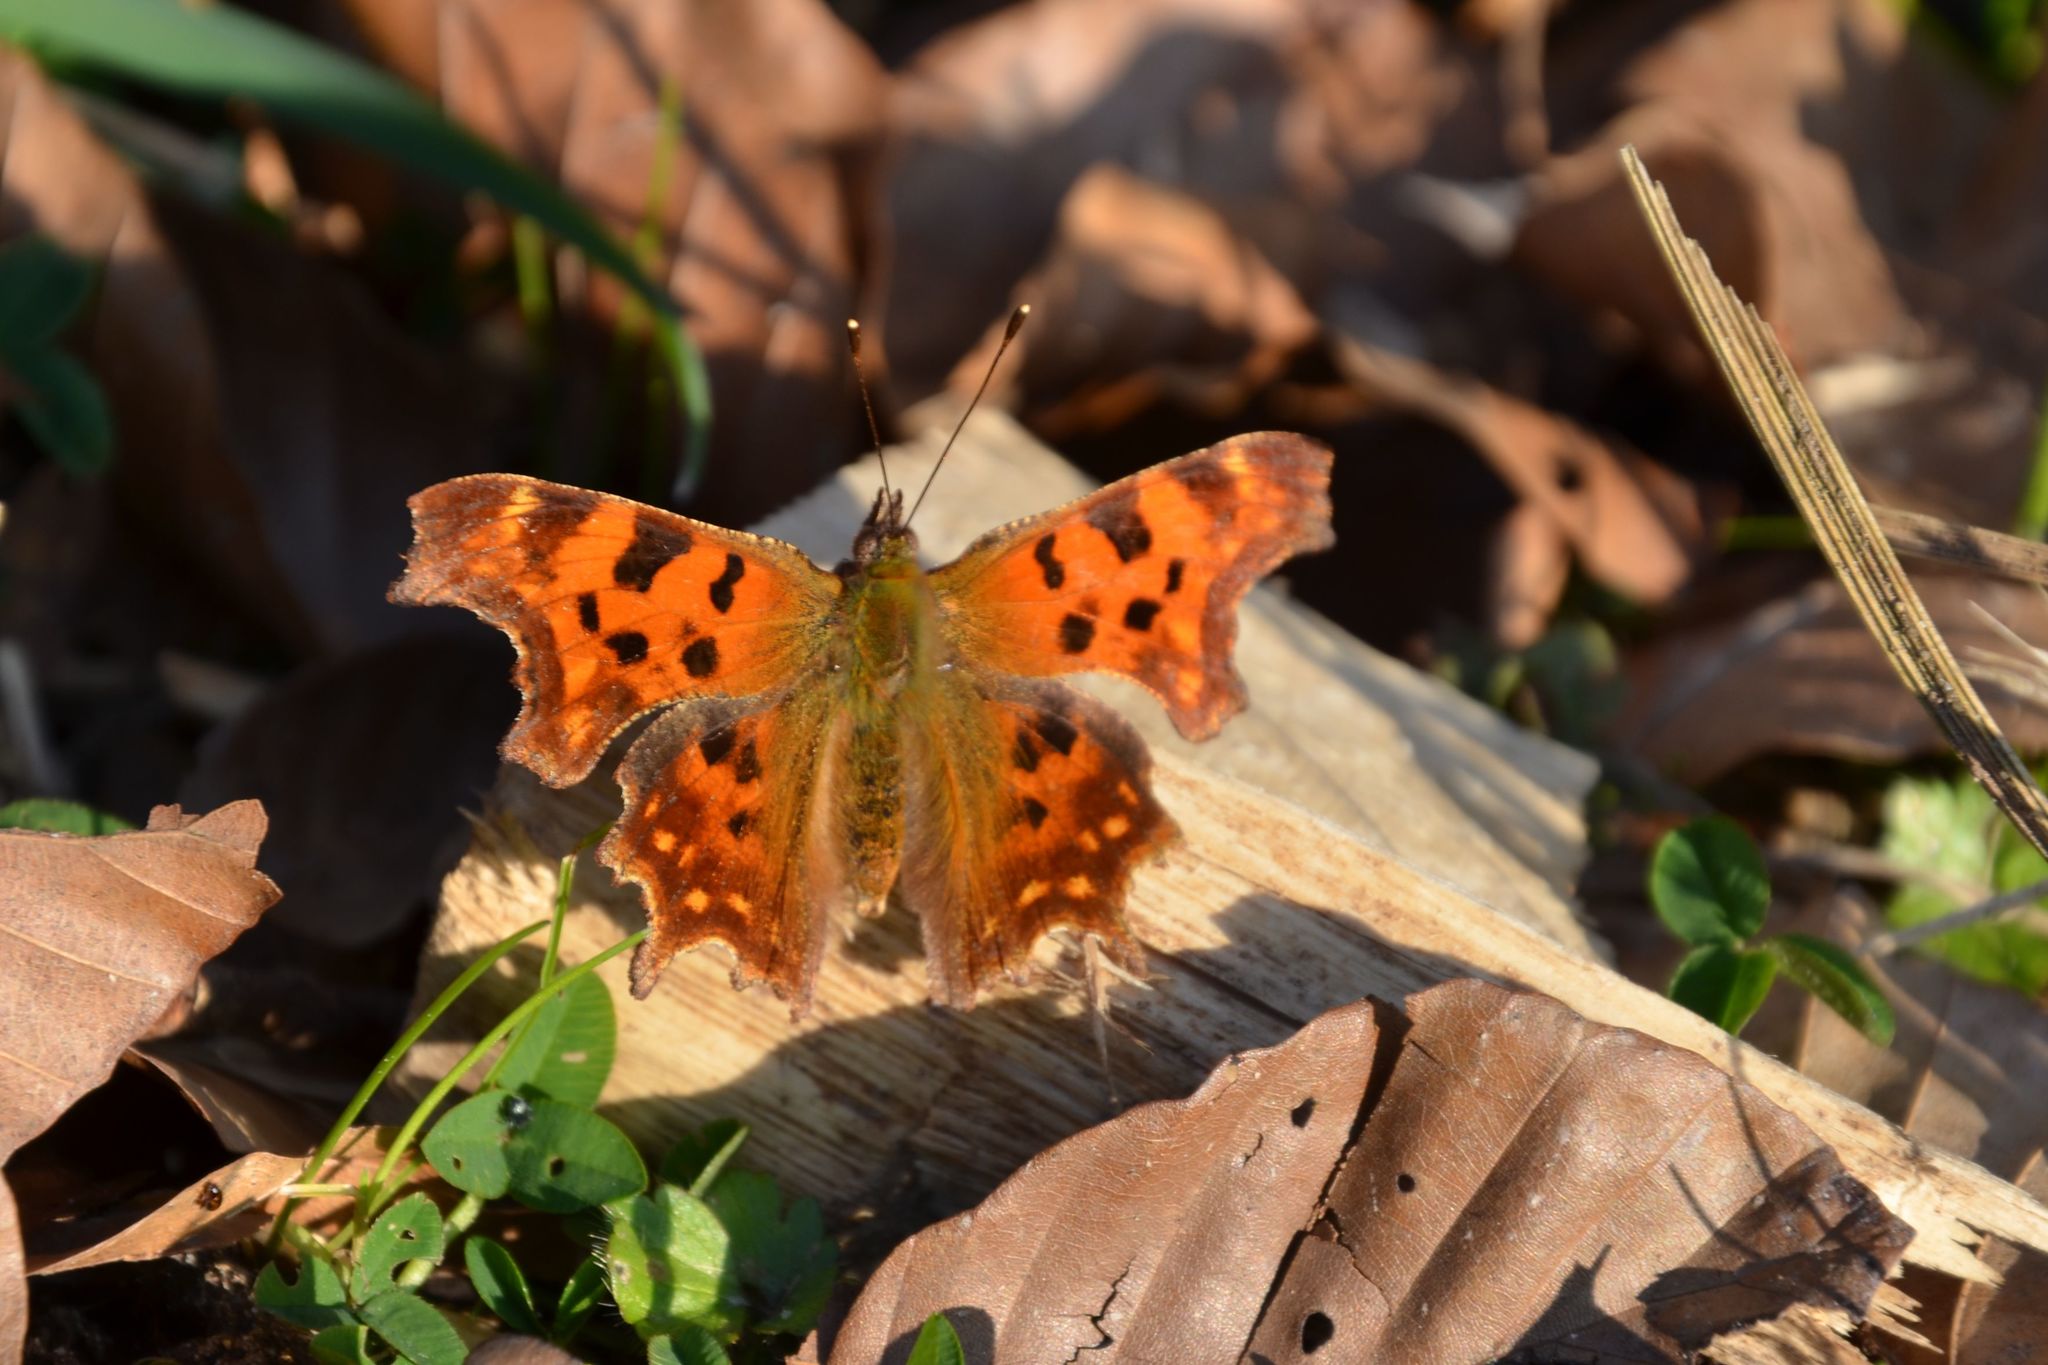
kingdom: Animalia
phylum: Arthropoda
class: Insecta
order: Lepidoptera
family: Nymphalidae
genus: Polygonia
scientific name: Polygonia c-album
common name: Comma
